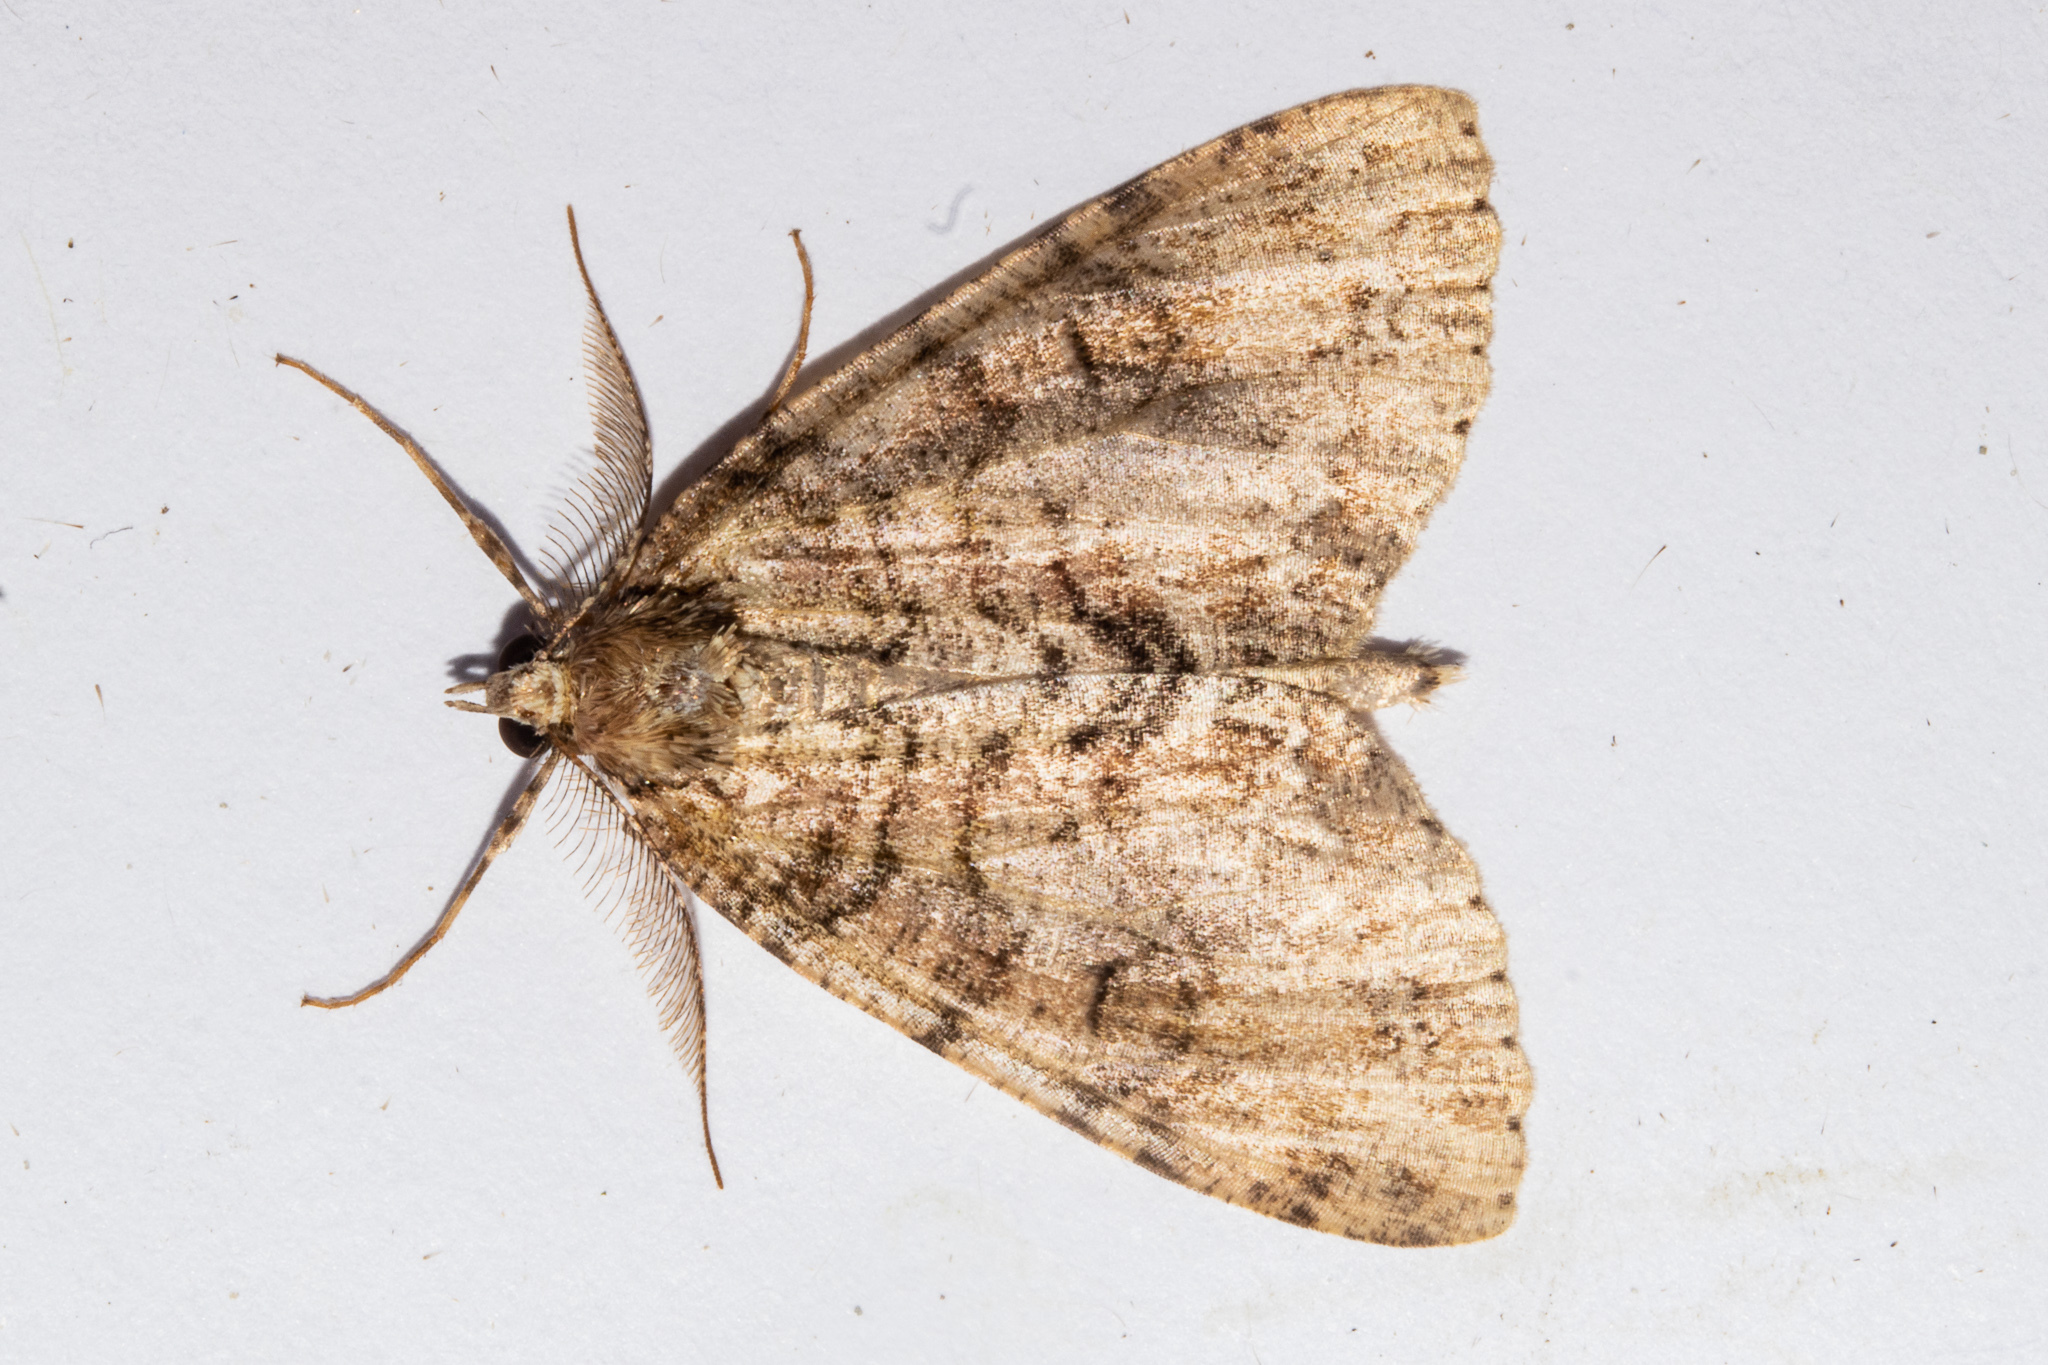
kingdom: Animalia
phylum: Arthropoda
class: Insecta
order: Lepidoptera
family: Geometridae
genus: Pseudocoremia
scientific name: Pseudocoremia suavis
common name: Common forest looper
